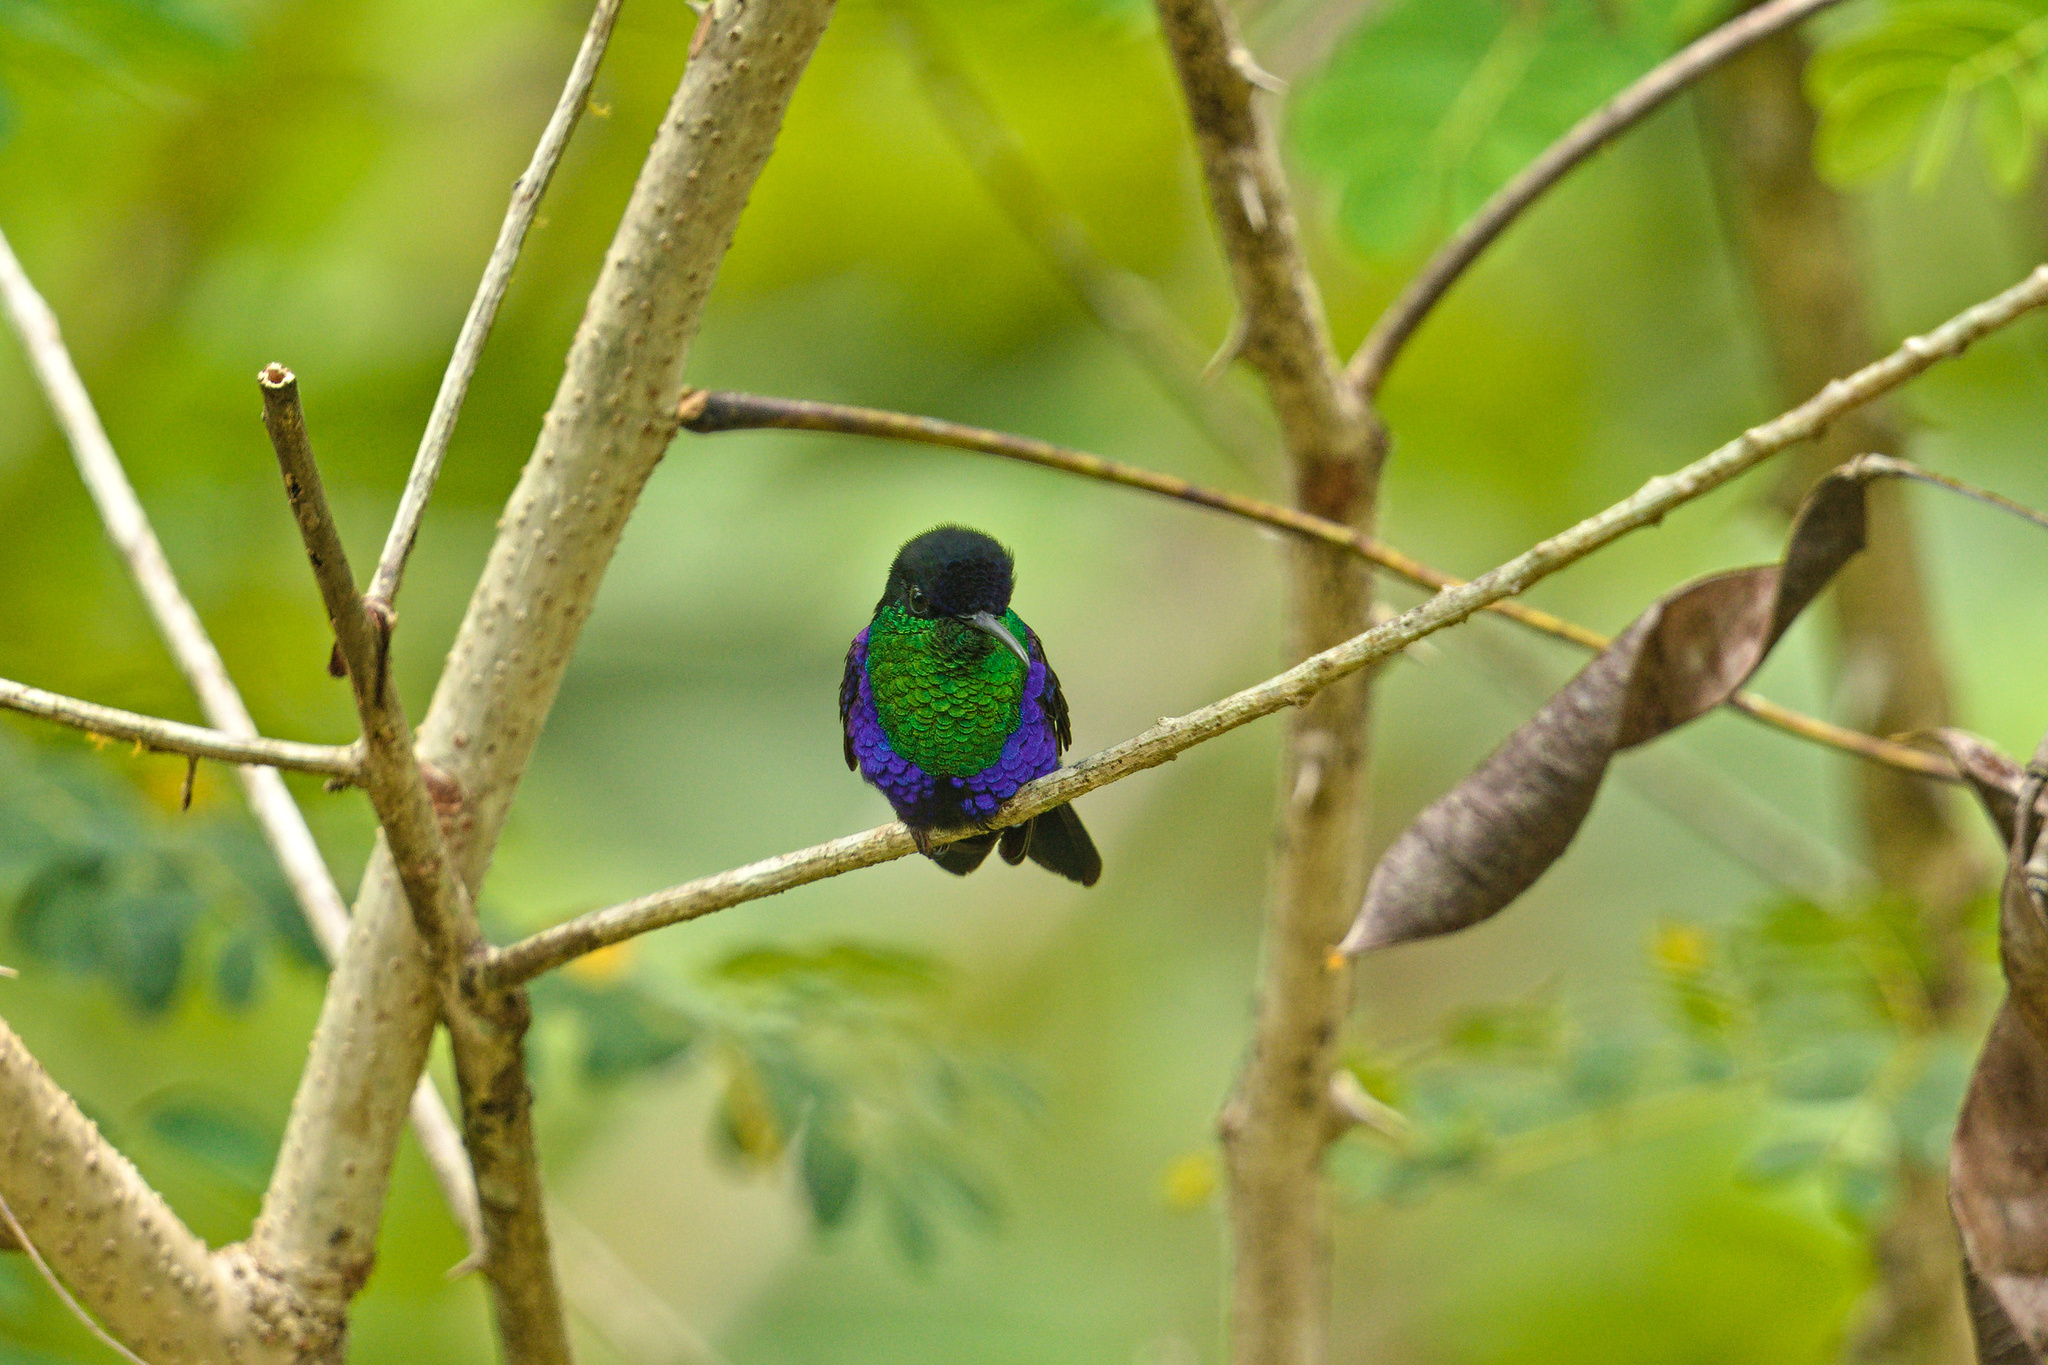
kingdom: Animalia
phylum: Chordata
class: Aves
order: Apodiformes
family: Trochilidae
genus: Thalurania
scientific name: Thalurania colombica
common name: Crowned woodnymph
